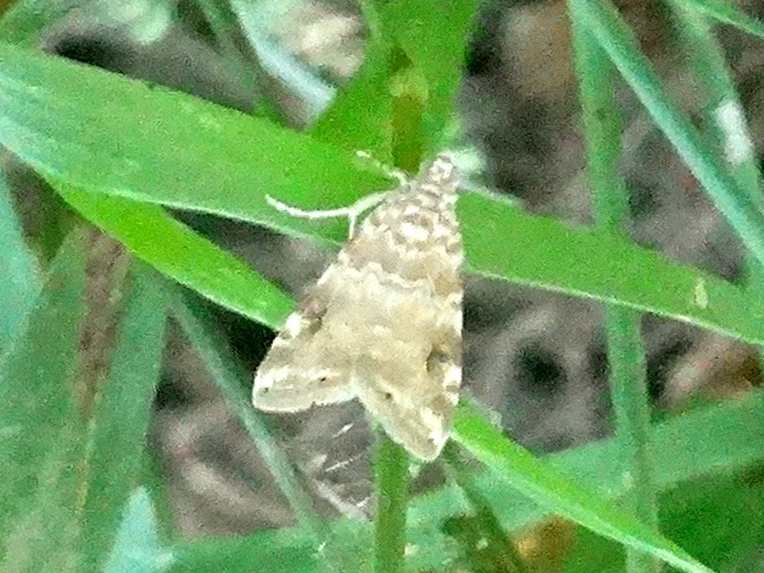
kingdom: Animalia
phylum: Arthropoda
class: Insecta
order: Lepidoptera
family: Crambidae
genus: Hellula
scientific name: Hellula phidilealis
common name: Crambid moth
